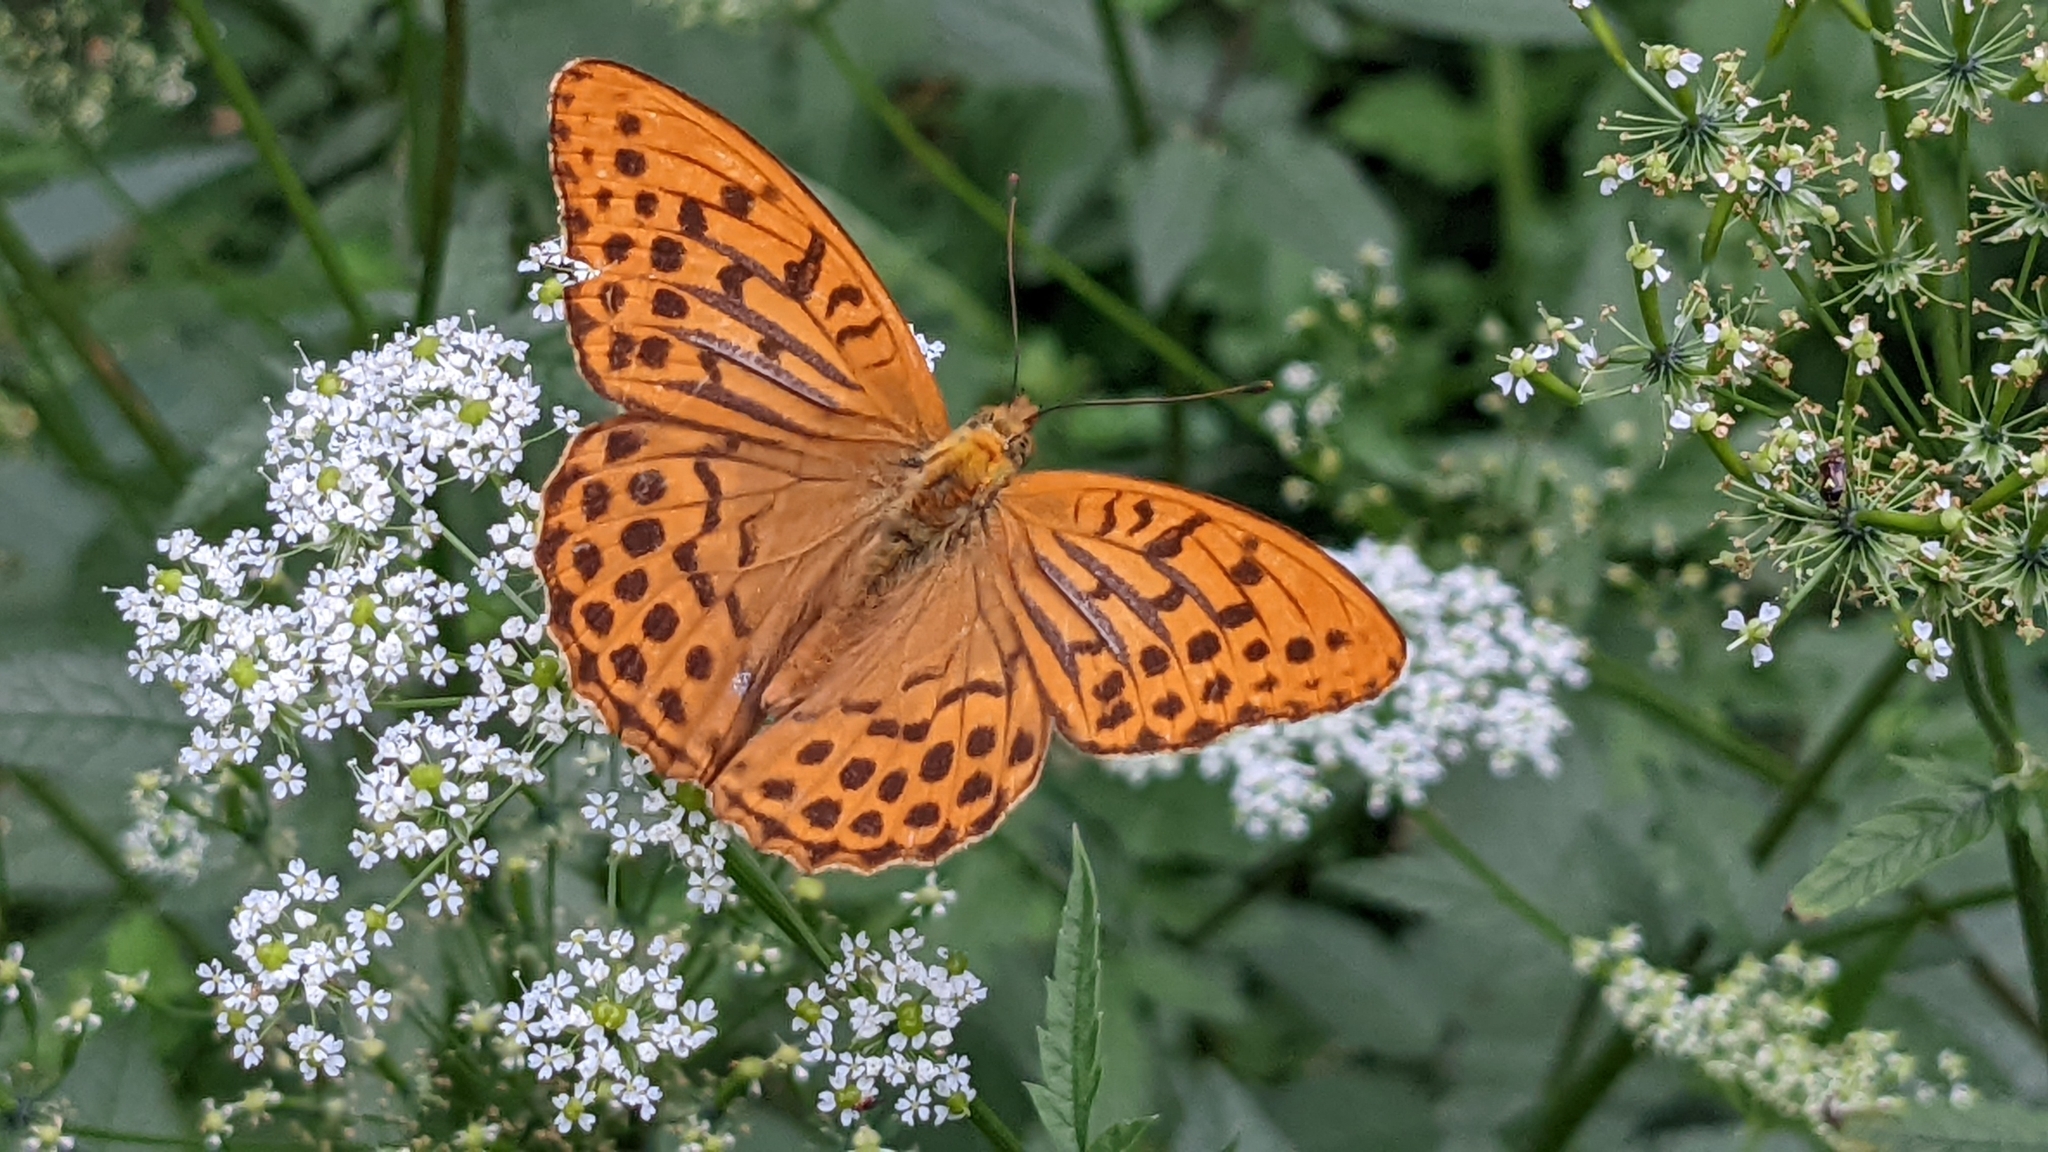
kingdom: Animalia
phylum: Arthropoda
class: Insecta
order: Lepidoptera
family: Nymphalidae
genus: Argynnis
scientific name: Argynnis paphia
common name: Silver-washed fritillary
